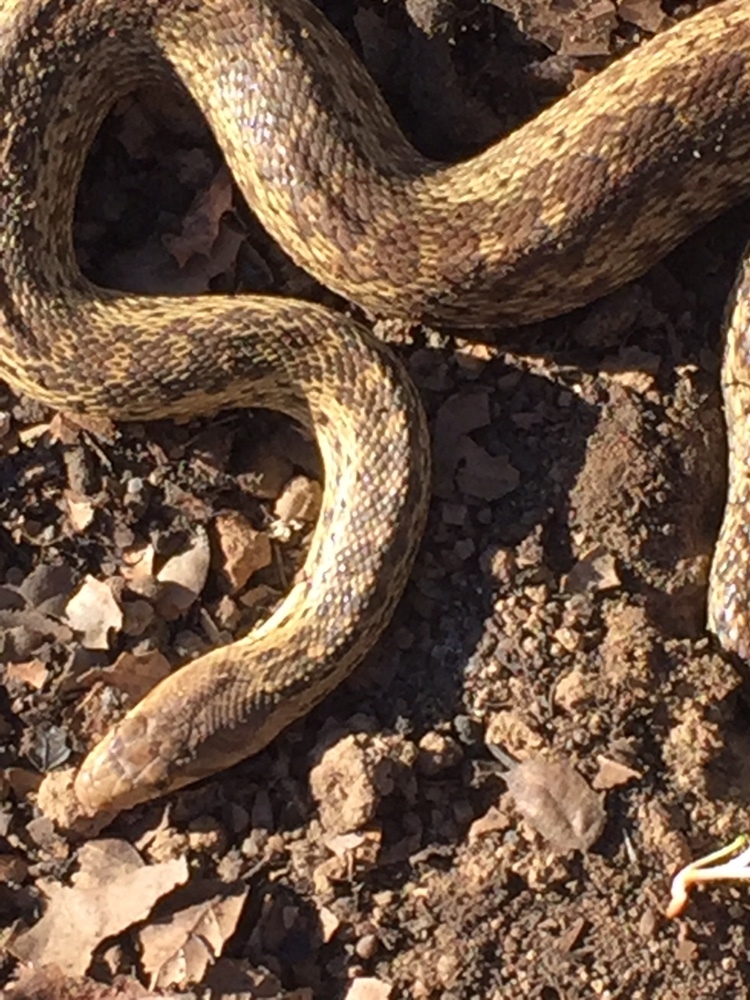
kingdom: Animalia
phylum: Chordata
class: Squamata
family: Colubridae
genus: Pituophis
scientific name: Pituophis catenifer
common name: Gopher snake
